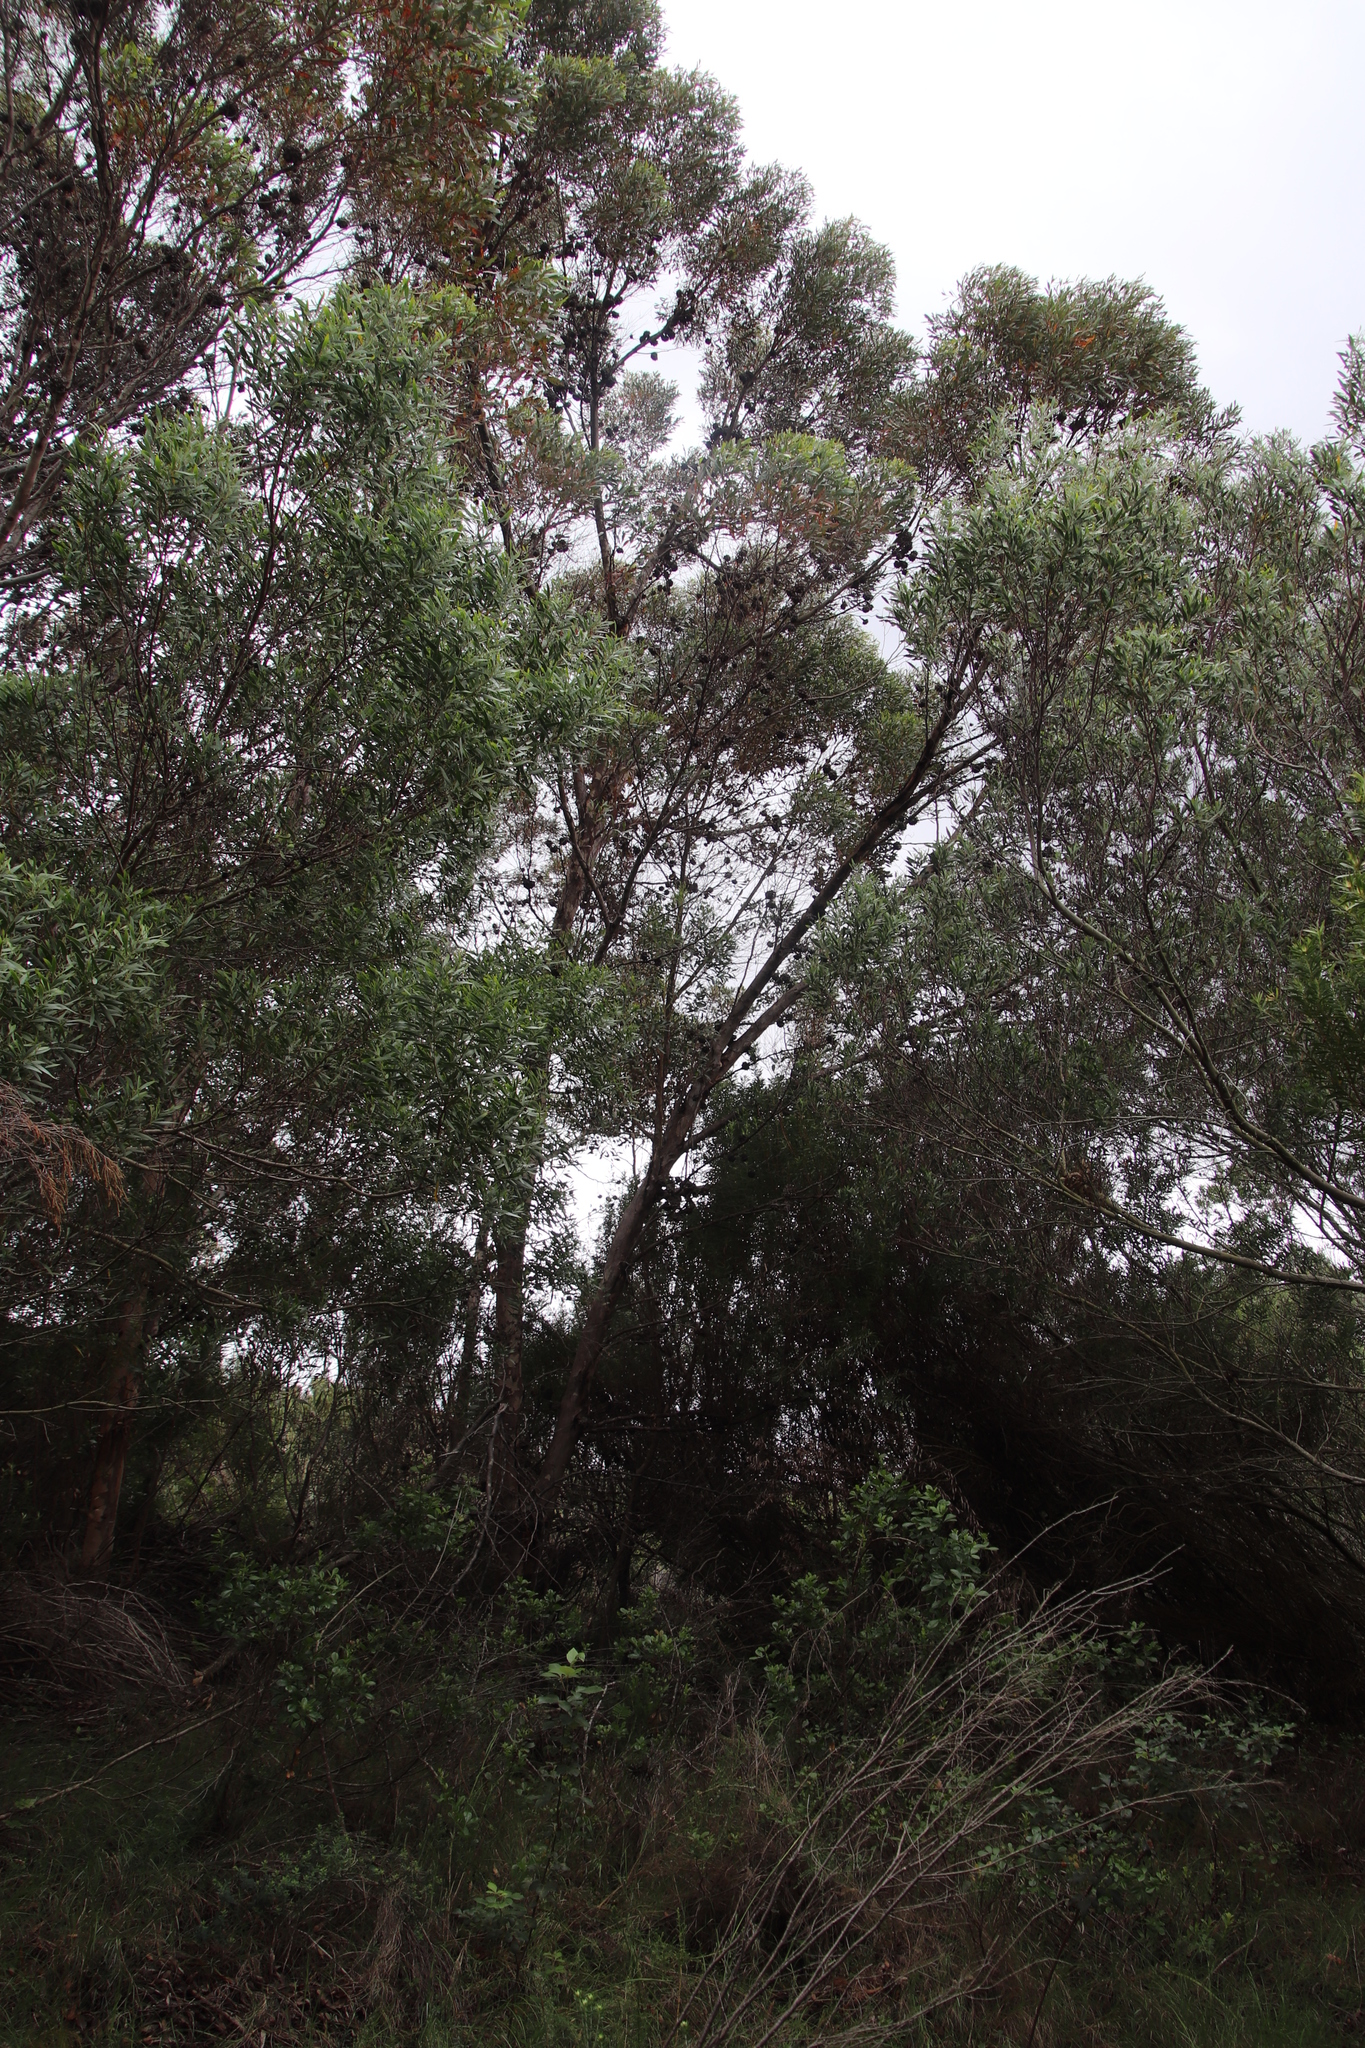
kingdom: Plantae
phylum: Tracheophyta
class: Magnoliopsida
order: Myrtales
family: Myrtaceae
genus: Eucalyptus
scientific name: Eucalyptus conferruminata
